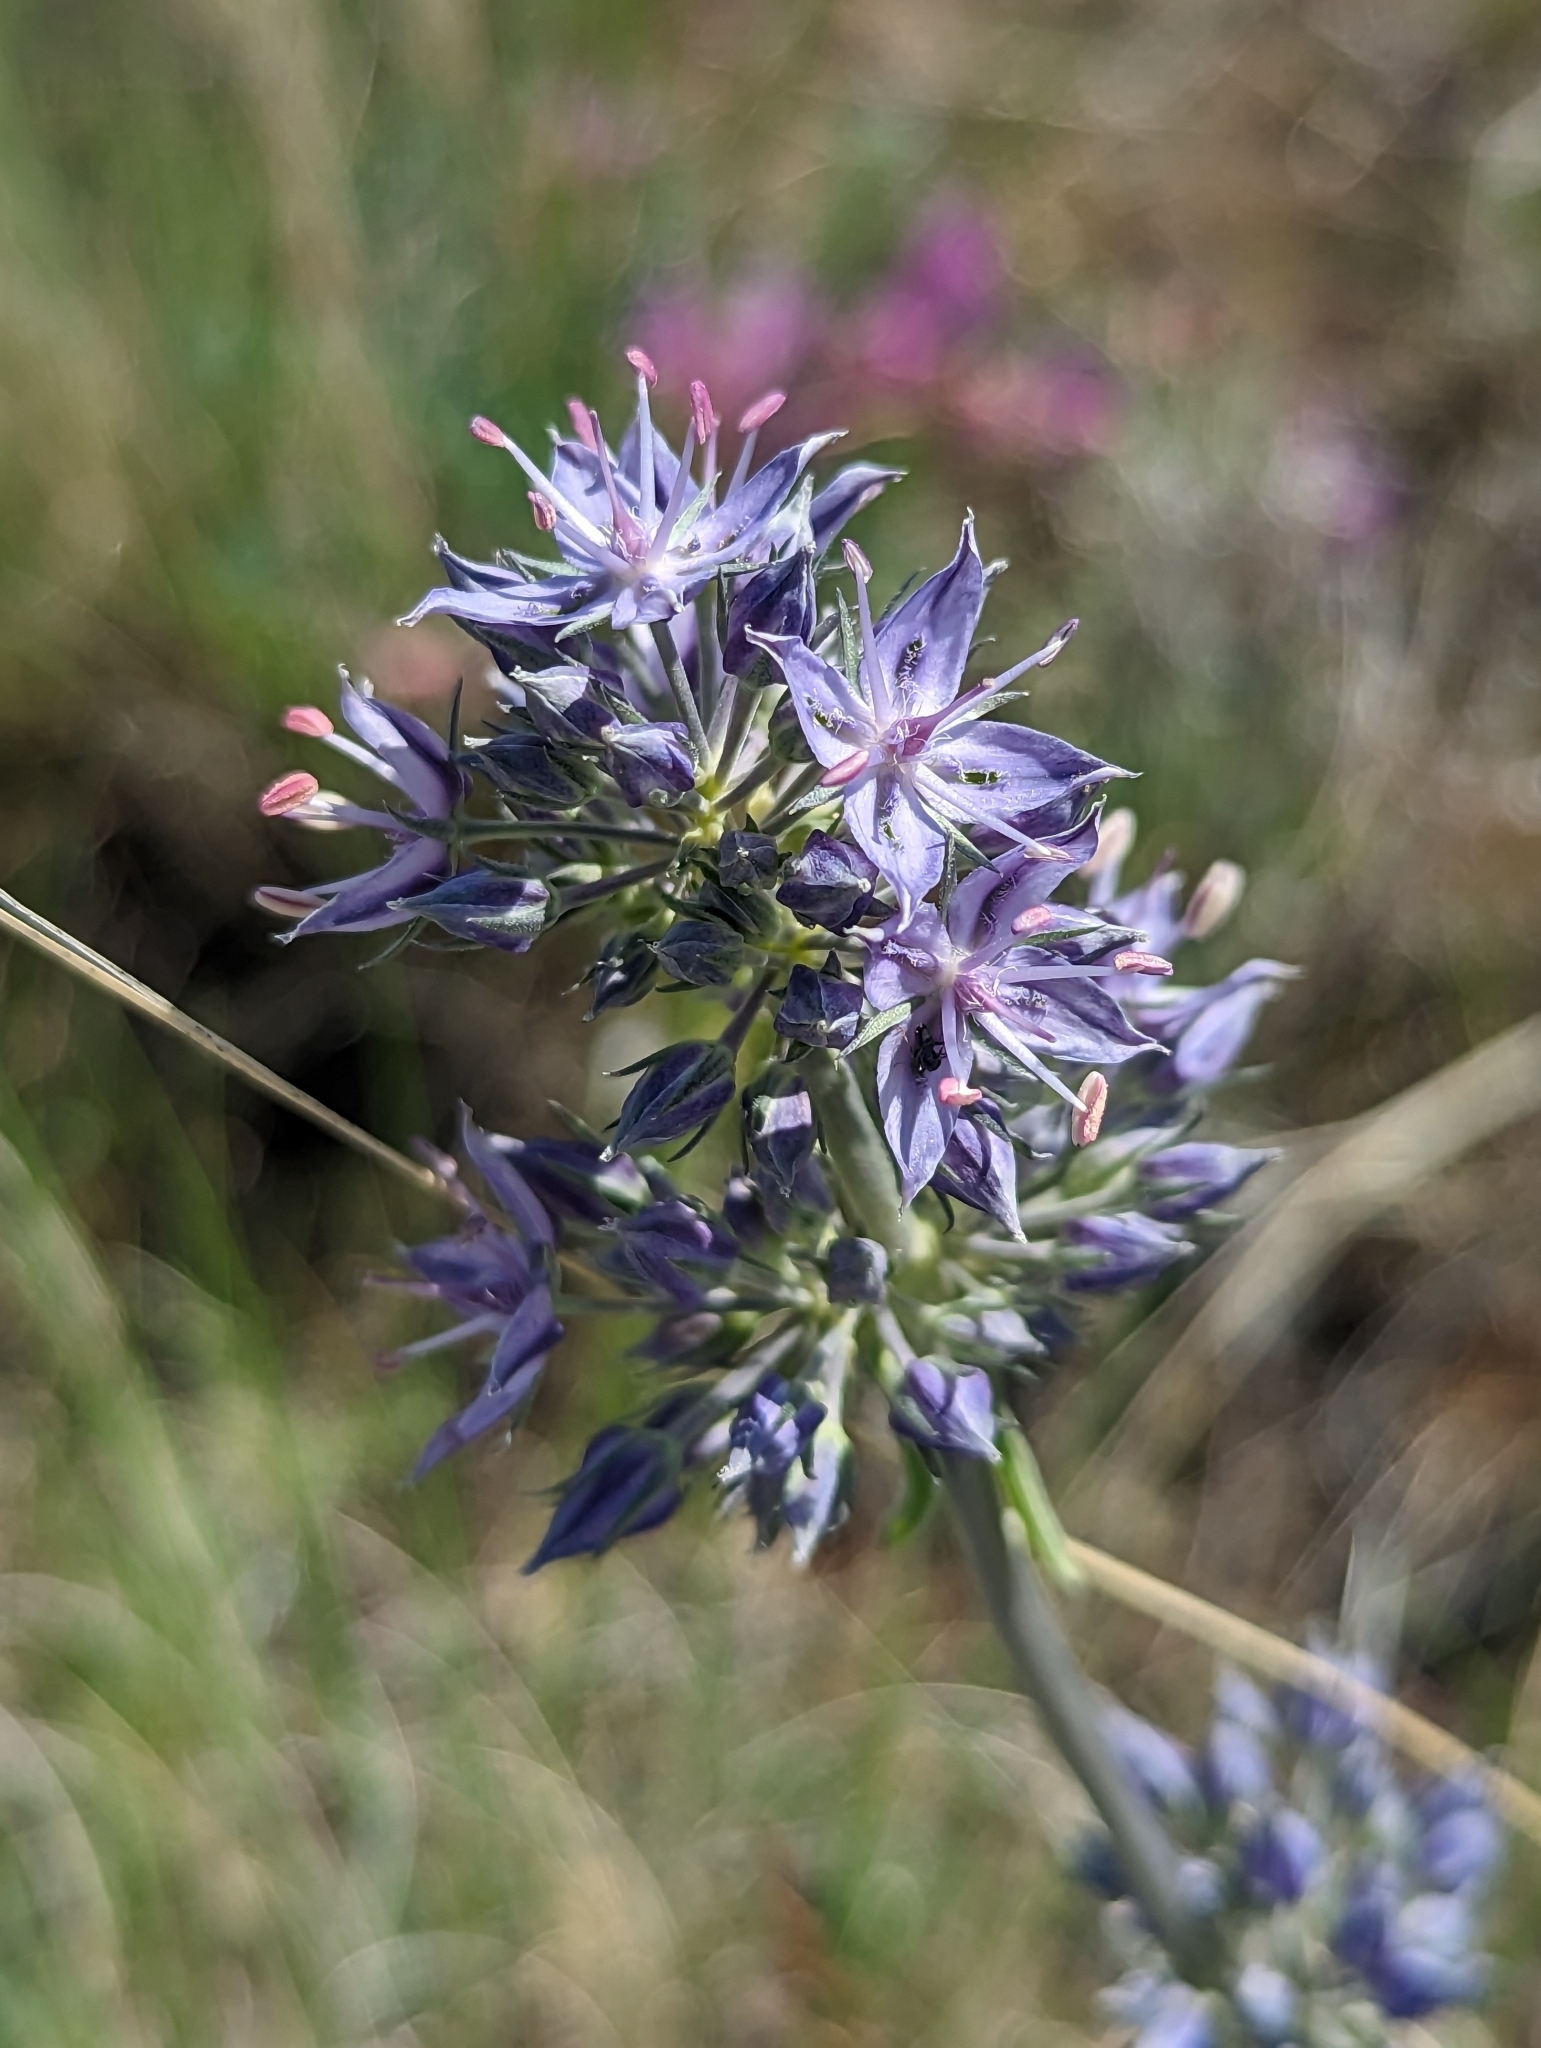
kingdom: Plantae
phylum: Tracheophyta
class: Magnoliopsida
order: Gentianales
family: Gentianaceae
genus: Frasera
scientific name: Frasera albicaulis
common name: Cusick's frasera
